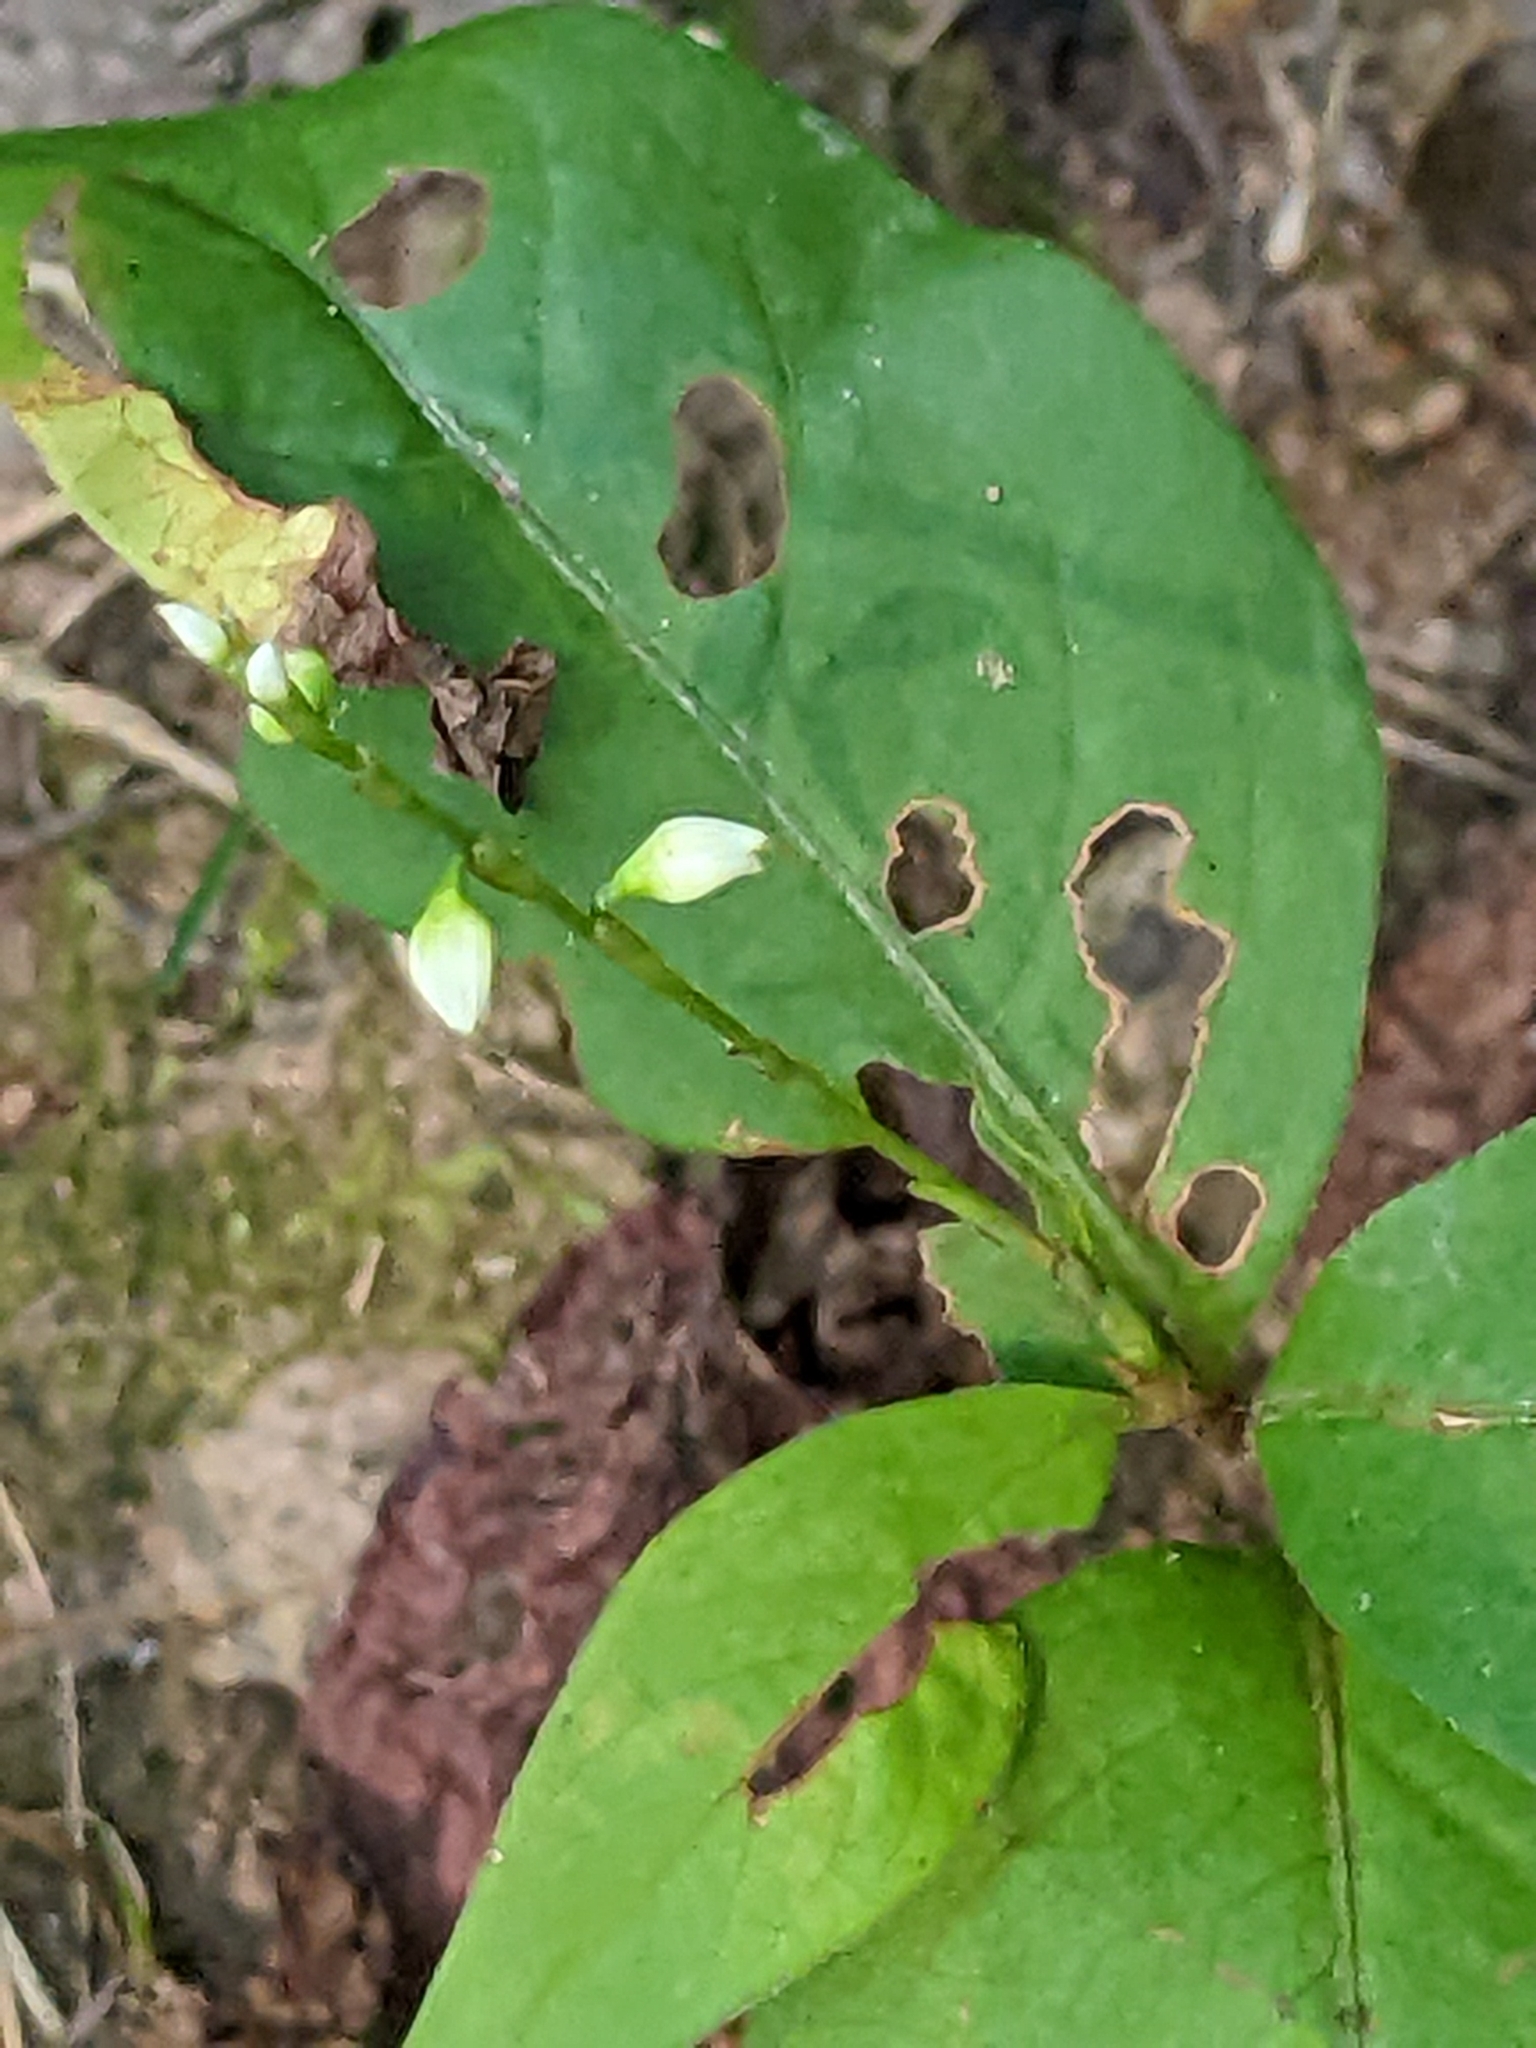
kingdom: Plantae
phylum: Tracheophyta
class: Magnoliopsida
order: Caryophyllales
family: Polygonaceae
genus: Persicaria
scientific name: Persicaria virginiana
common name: Jumpseed
